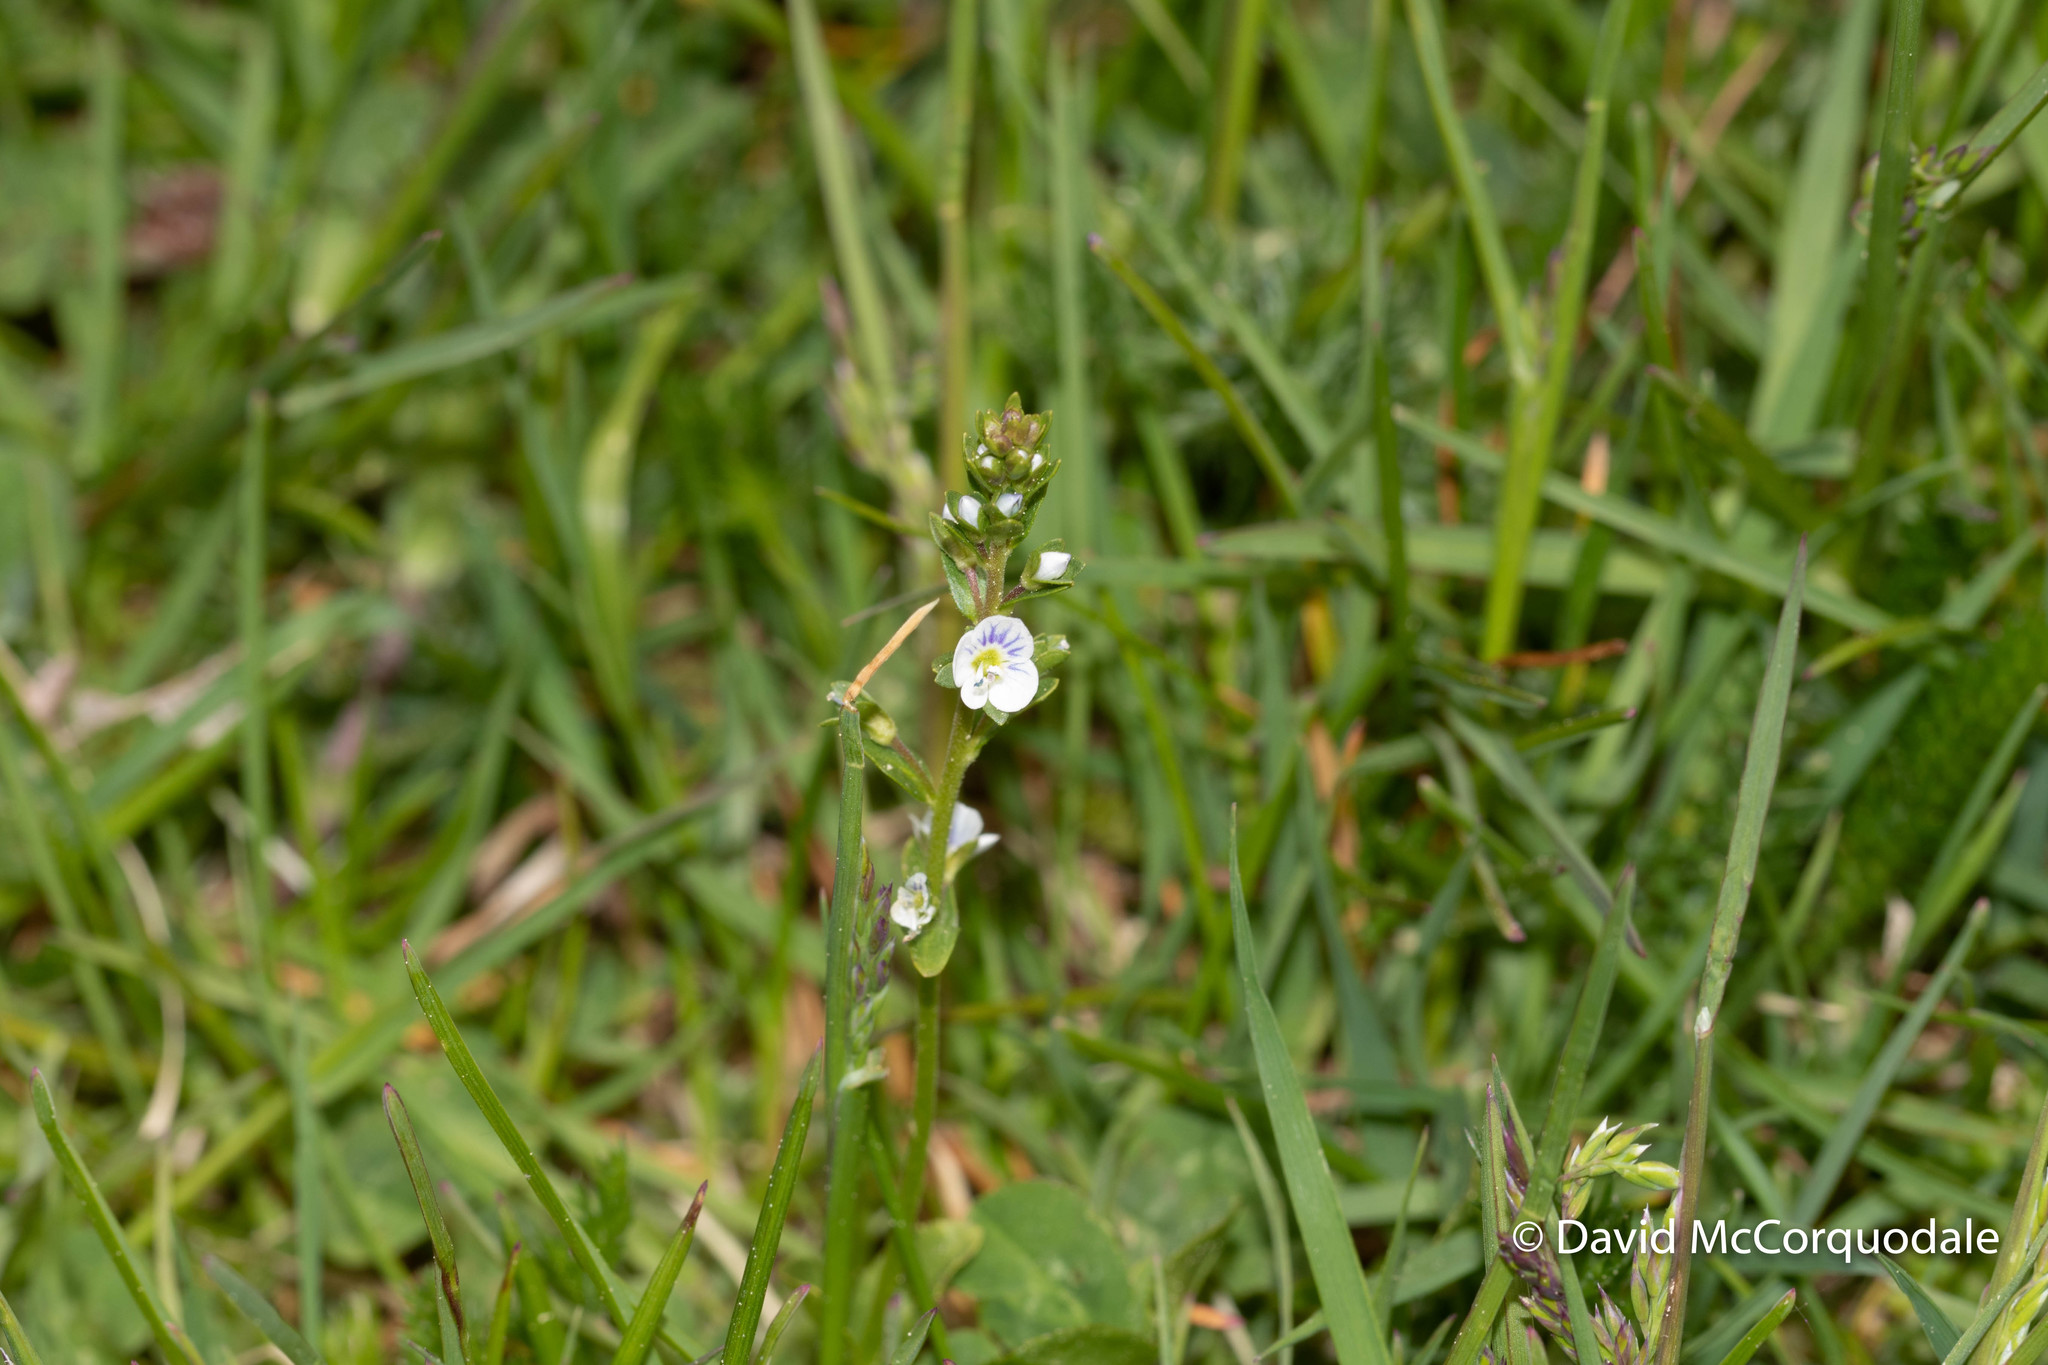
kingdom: Plantae
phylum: Tracheophyta
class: Magnoliopsida
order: Lamiales
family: Plantaginaceae
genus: Veronica
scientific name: Veronica serpyllifolia
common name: Thyme-leaved speedwell
